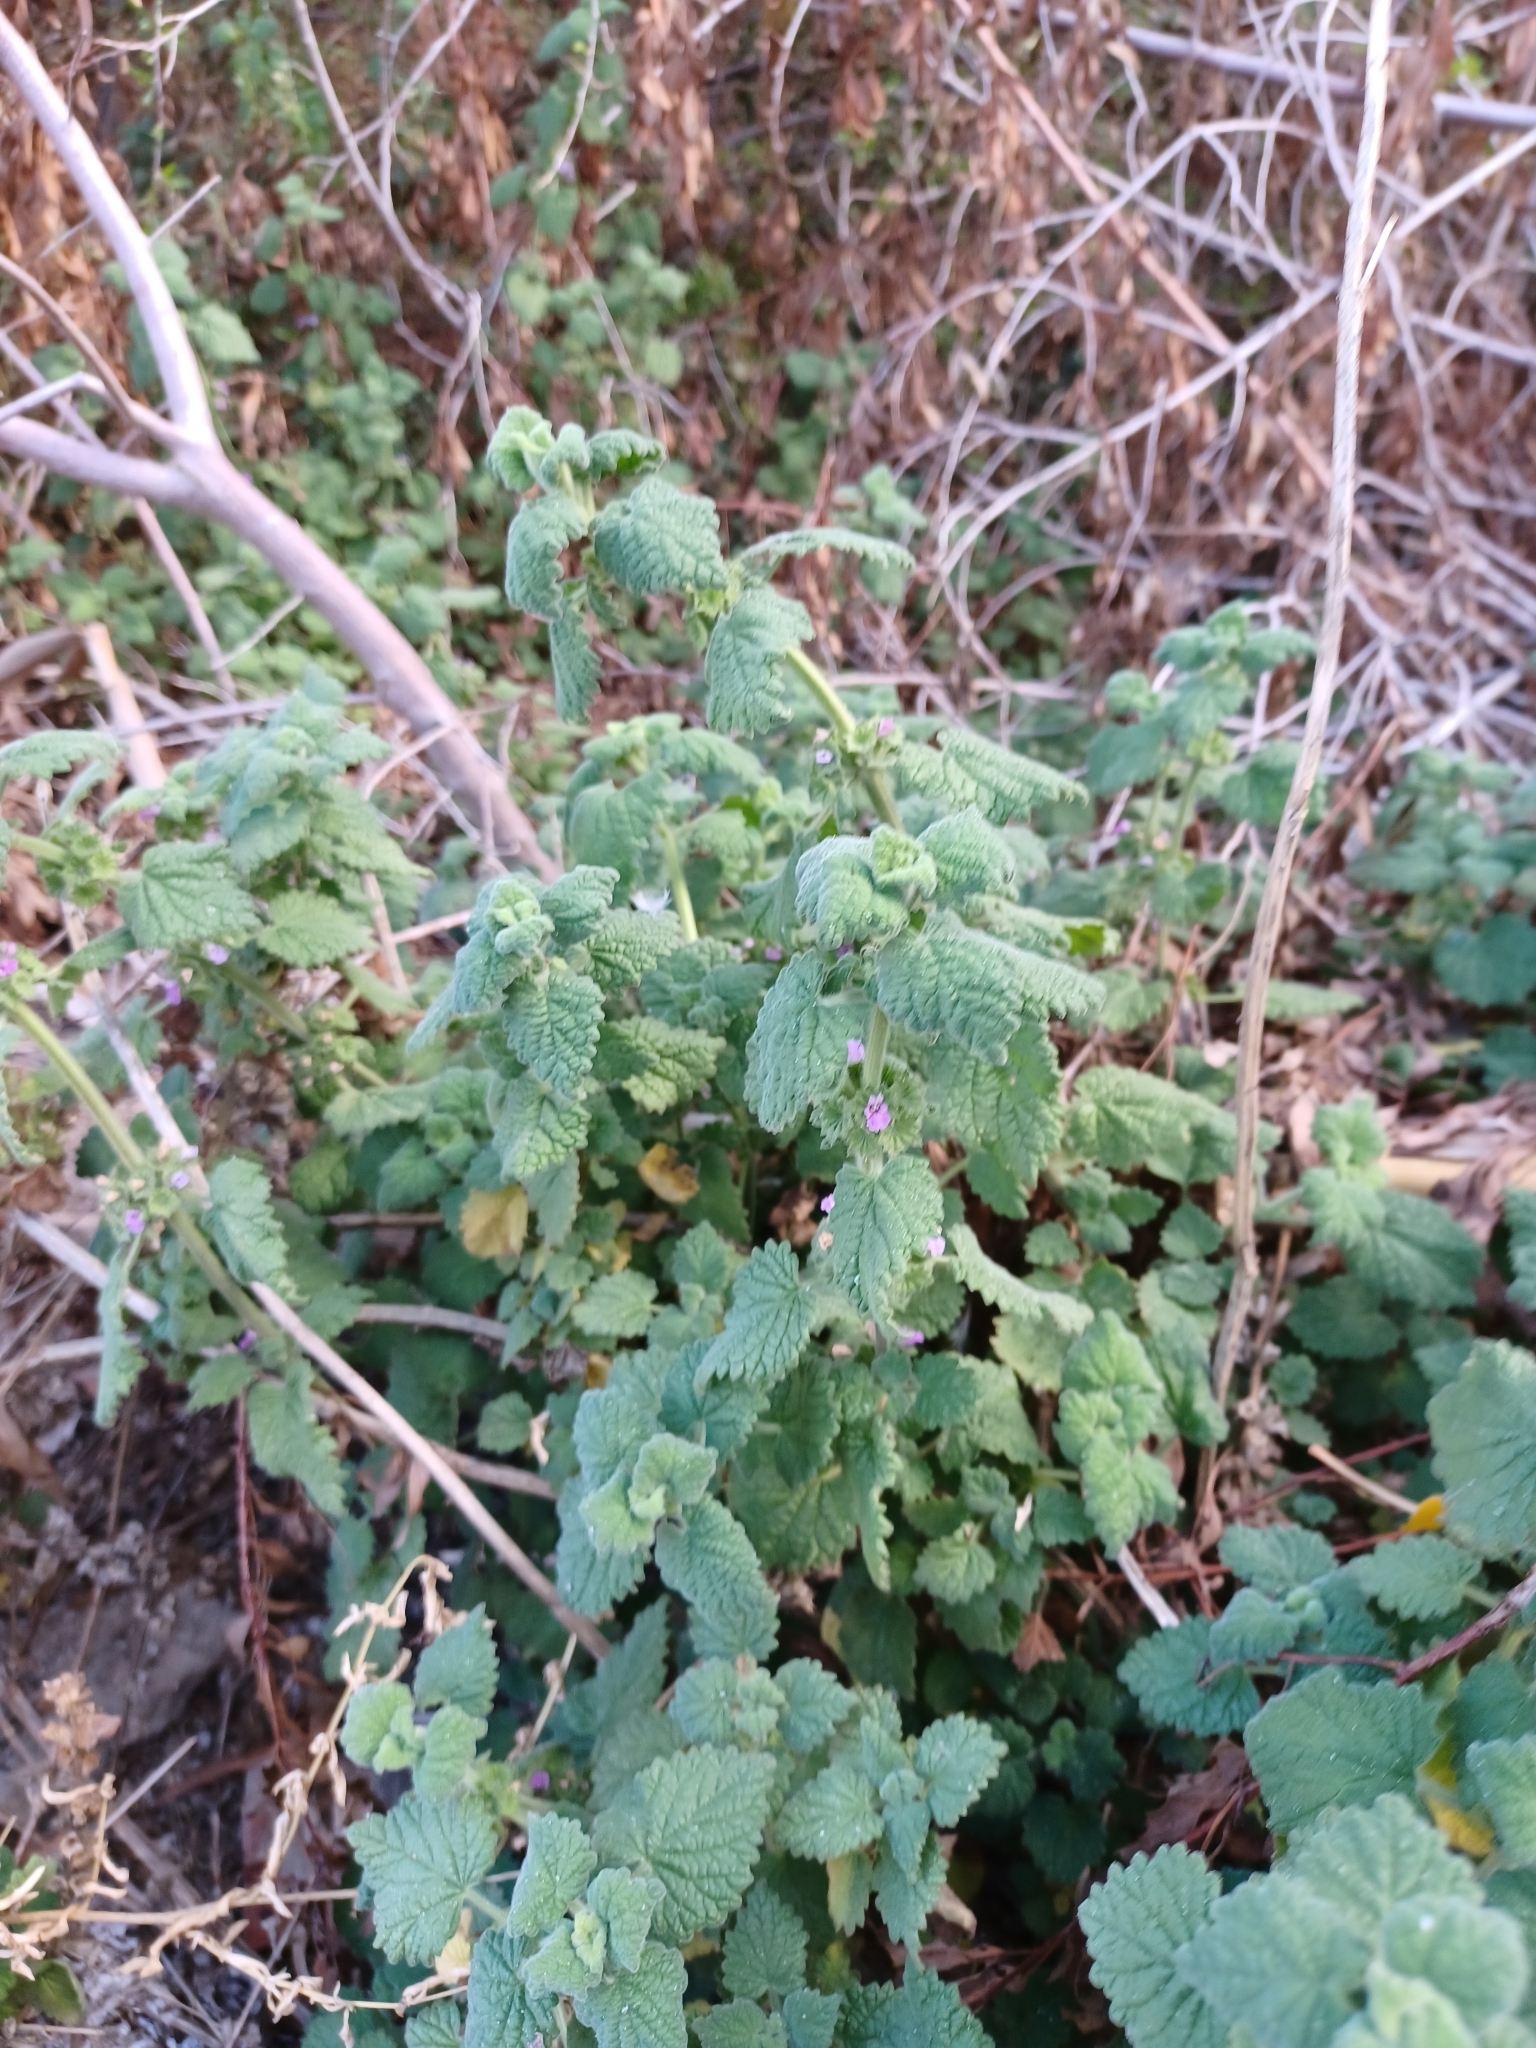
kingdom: Plantae
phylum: Tracheophyta
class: Magnoliopsida
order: Lamiales
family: Lamiaceae
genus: Pseudodictamnus
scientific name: Pseudodictamnus africanus
